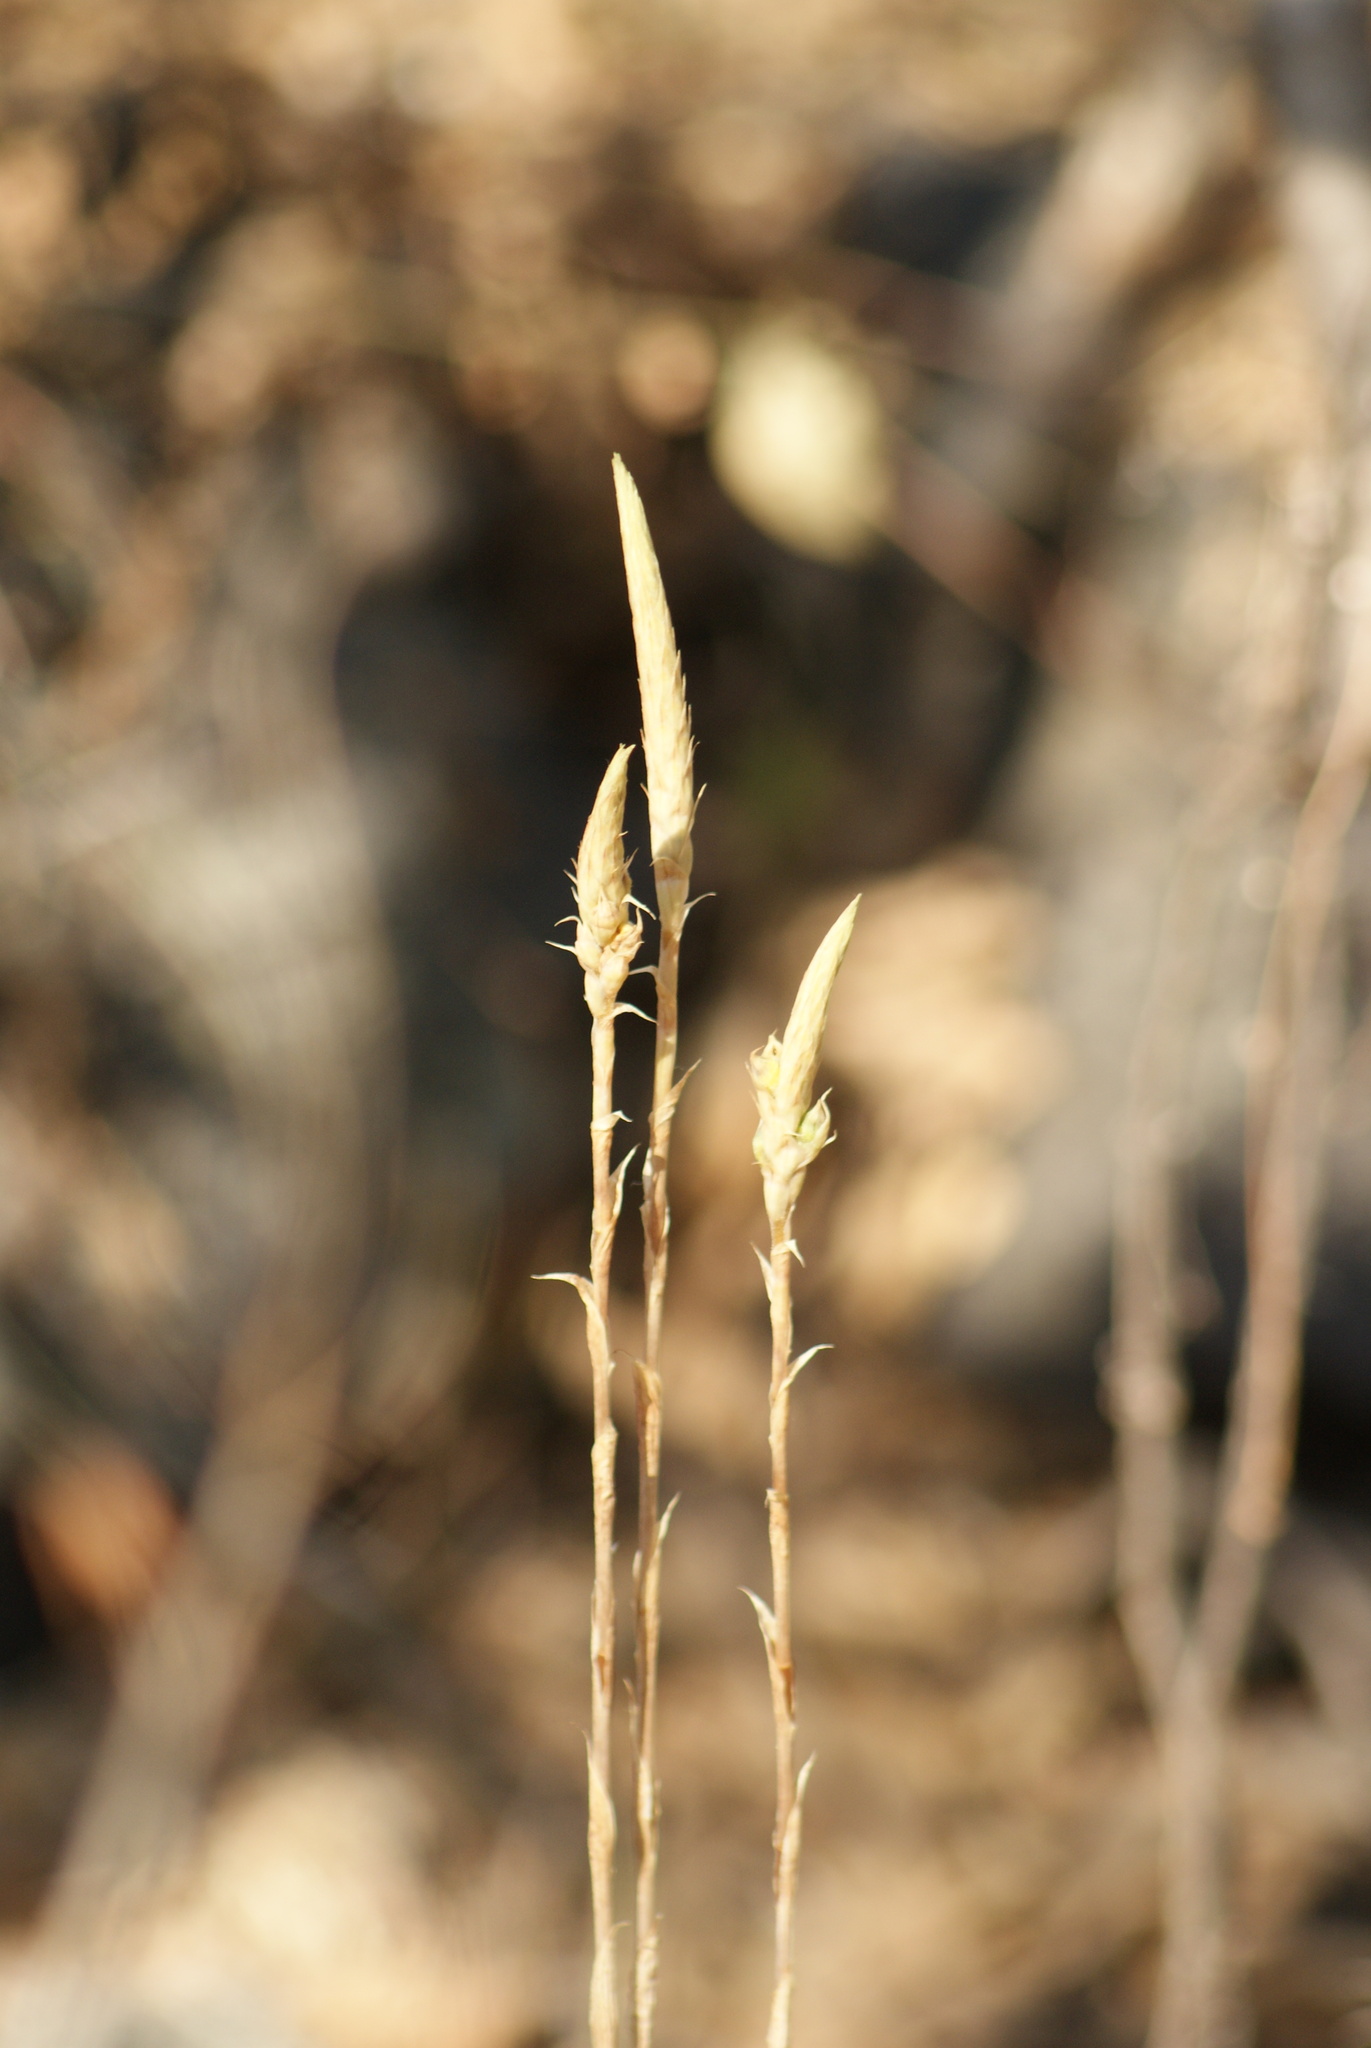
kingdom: Plantae
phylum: Tracheophyta
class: Liliopsida
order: Asparagales
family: Orchidaceae
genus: Aulosepalum
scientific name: Aulosepalum pyramidale
